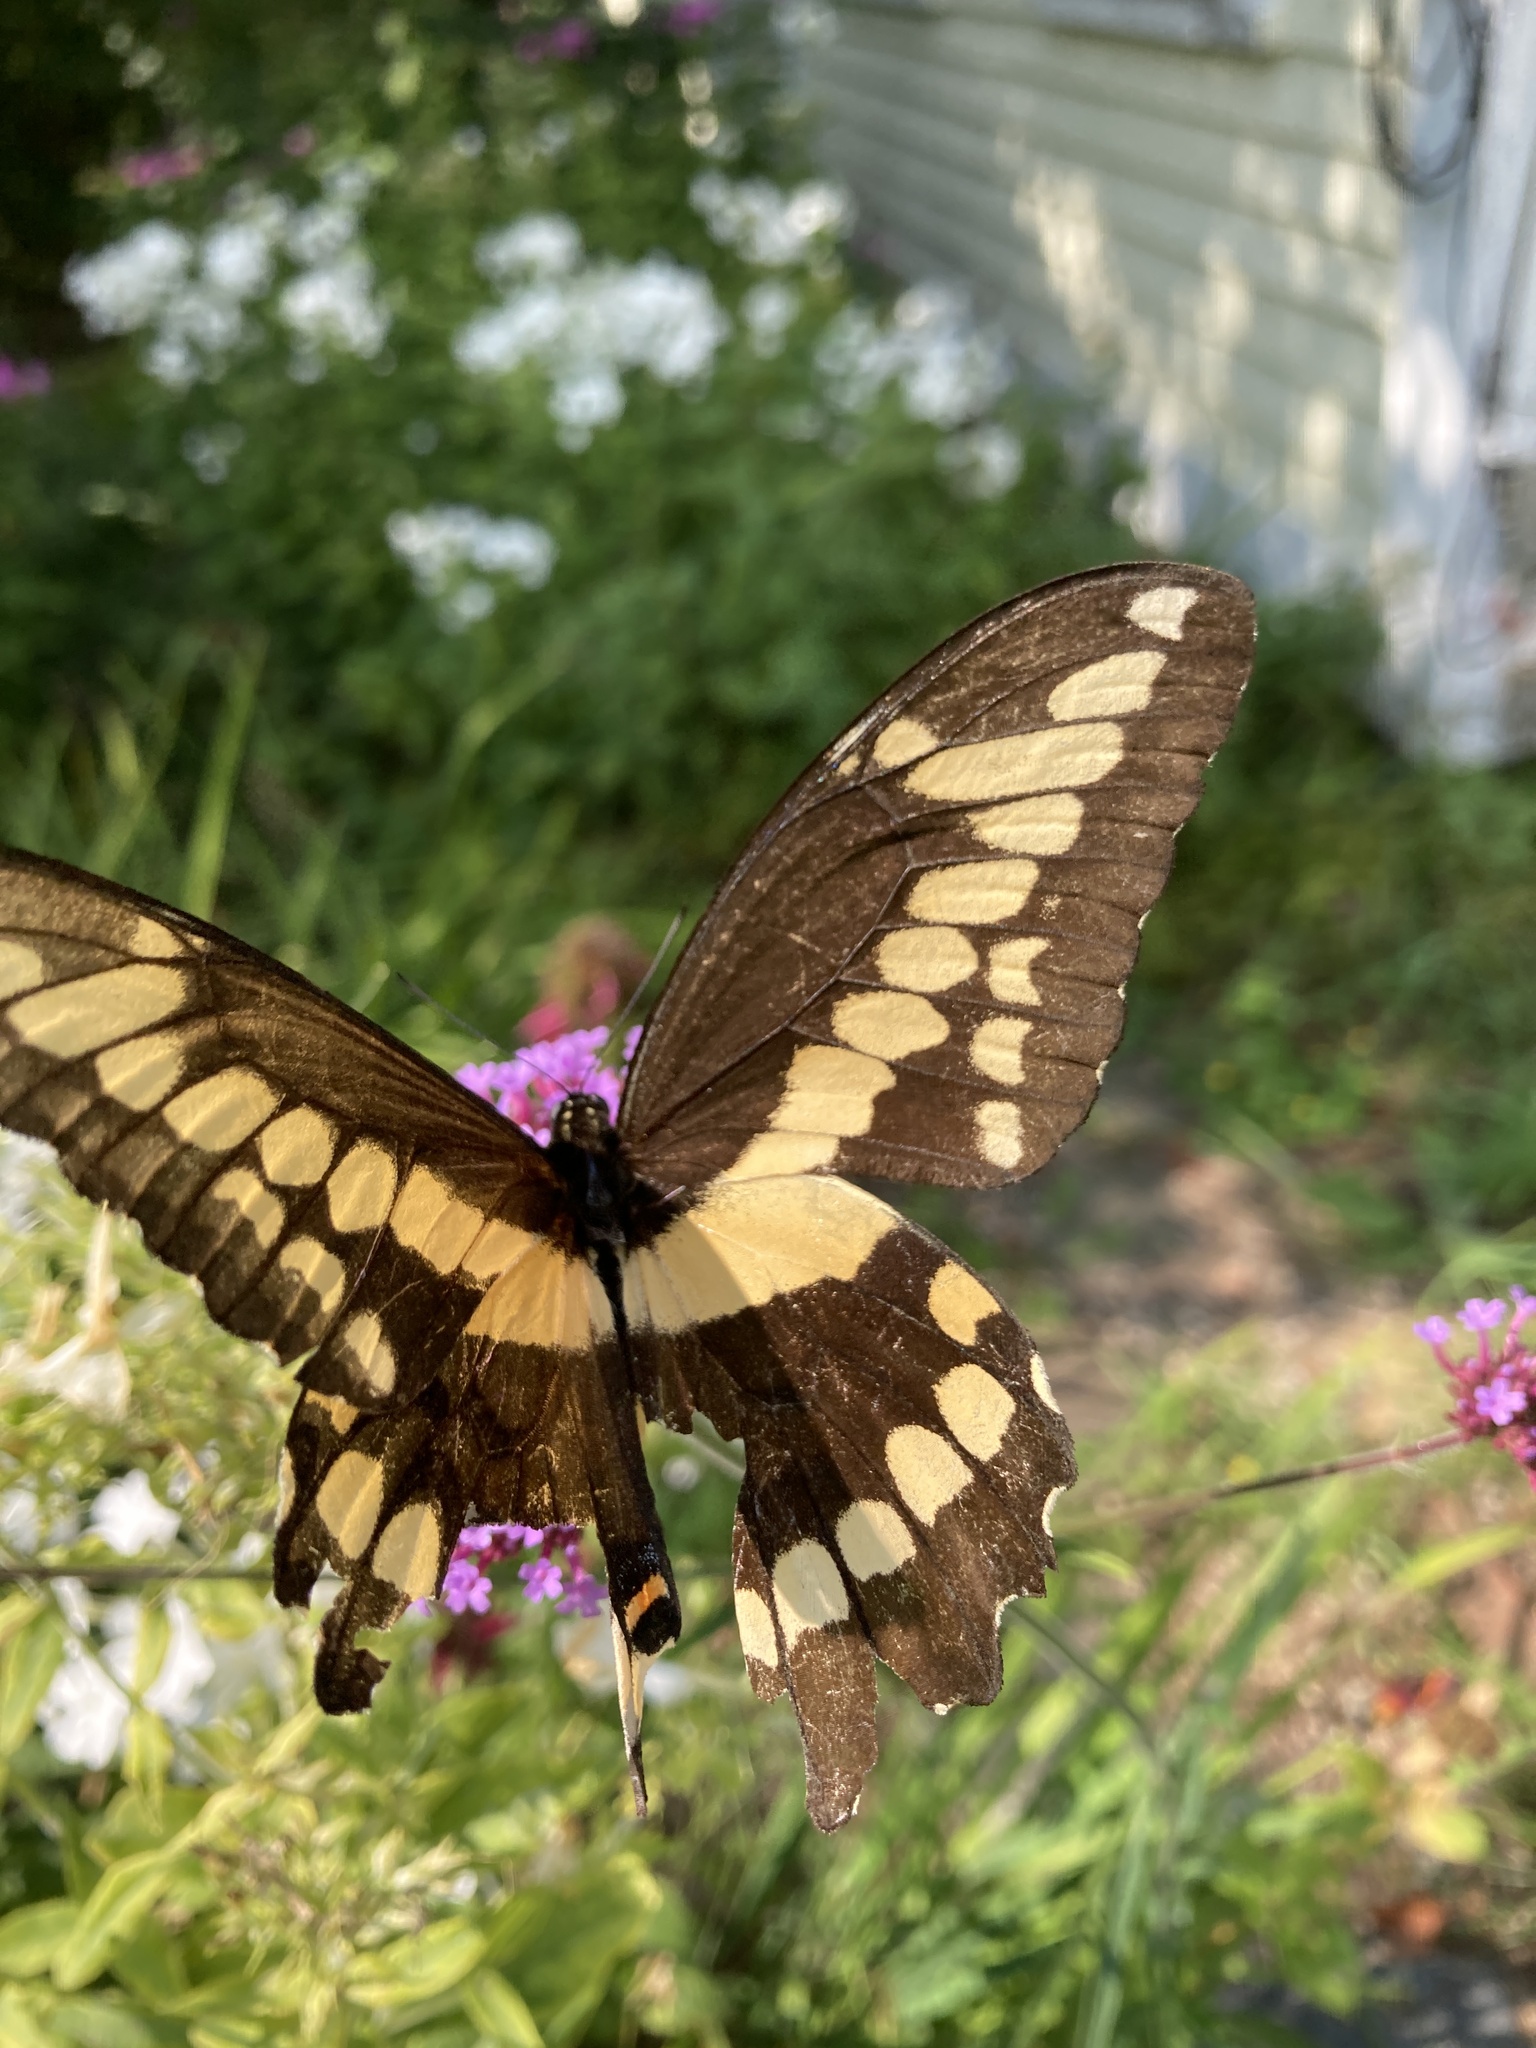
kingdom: Animalia
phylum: Arthropoda
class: Insecta
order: Lepidoptera
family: Papilionidae
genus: Papilio
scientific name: Papilio cresphontes
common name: Giant swallowtail
